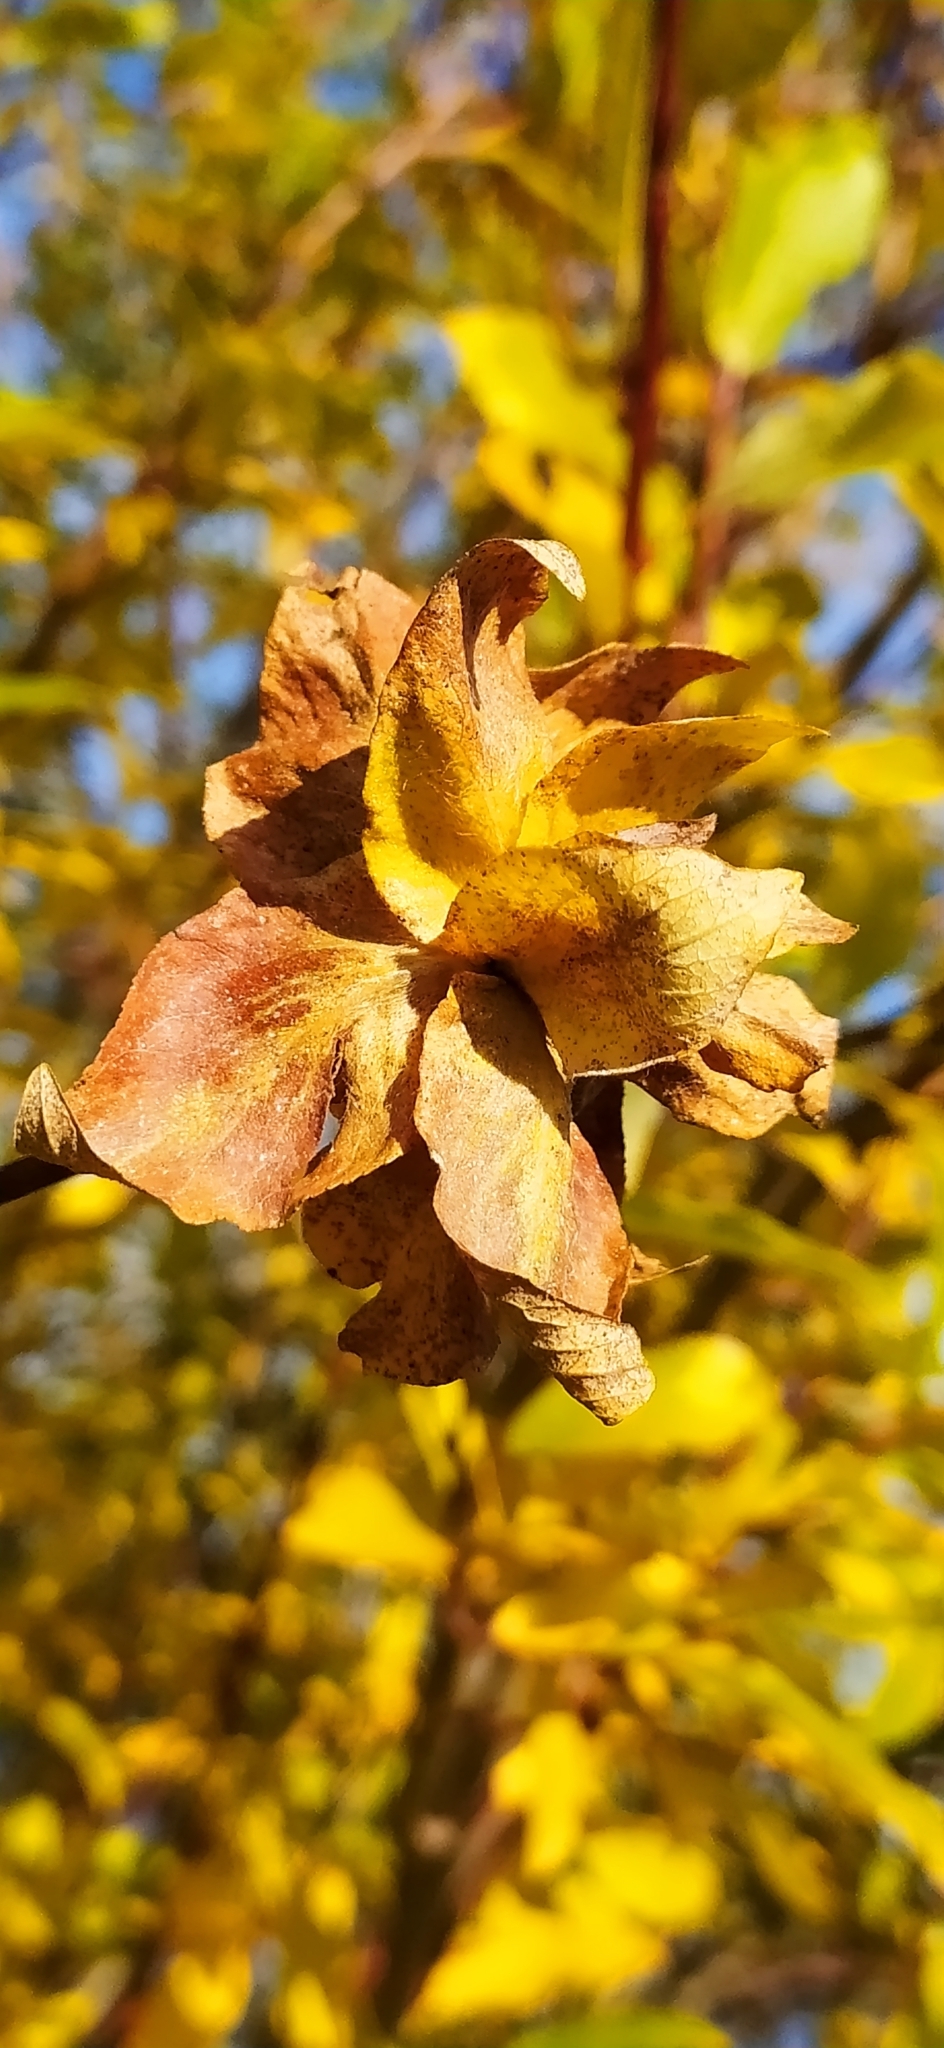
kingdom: Animalia
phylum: Arthropoda
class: Insecta
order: Diptera
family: Cecidomyiidae
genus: Rabdophaga
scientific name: Rabdophaga rosaria
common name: Willow rose gall midge
